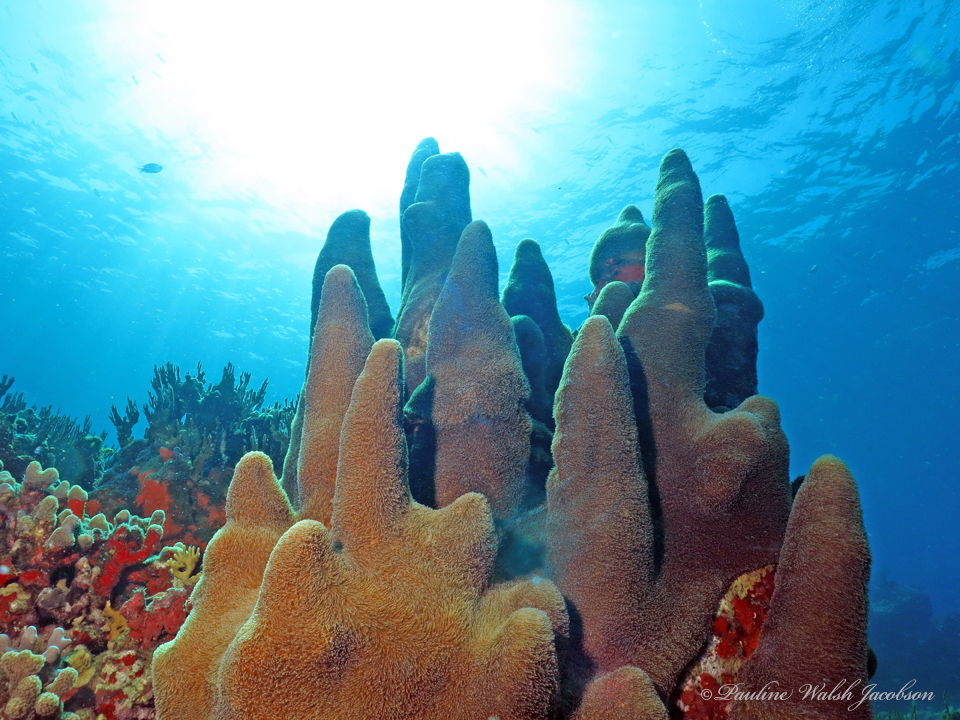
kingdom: Animalia
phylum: Cnidaria
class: Anthozoa
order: Scleractinia
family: Meandrinidae
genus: Dendrogyra
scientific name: Dendrogyra cylindrus
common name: Pillar coral
